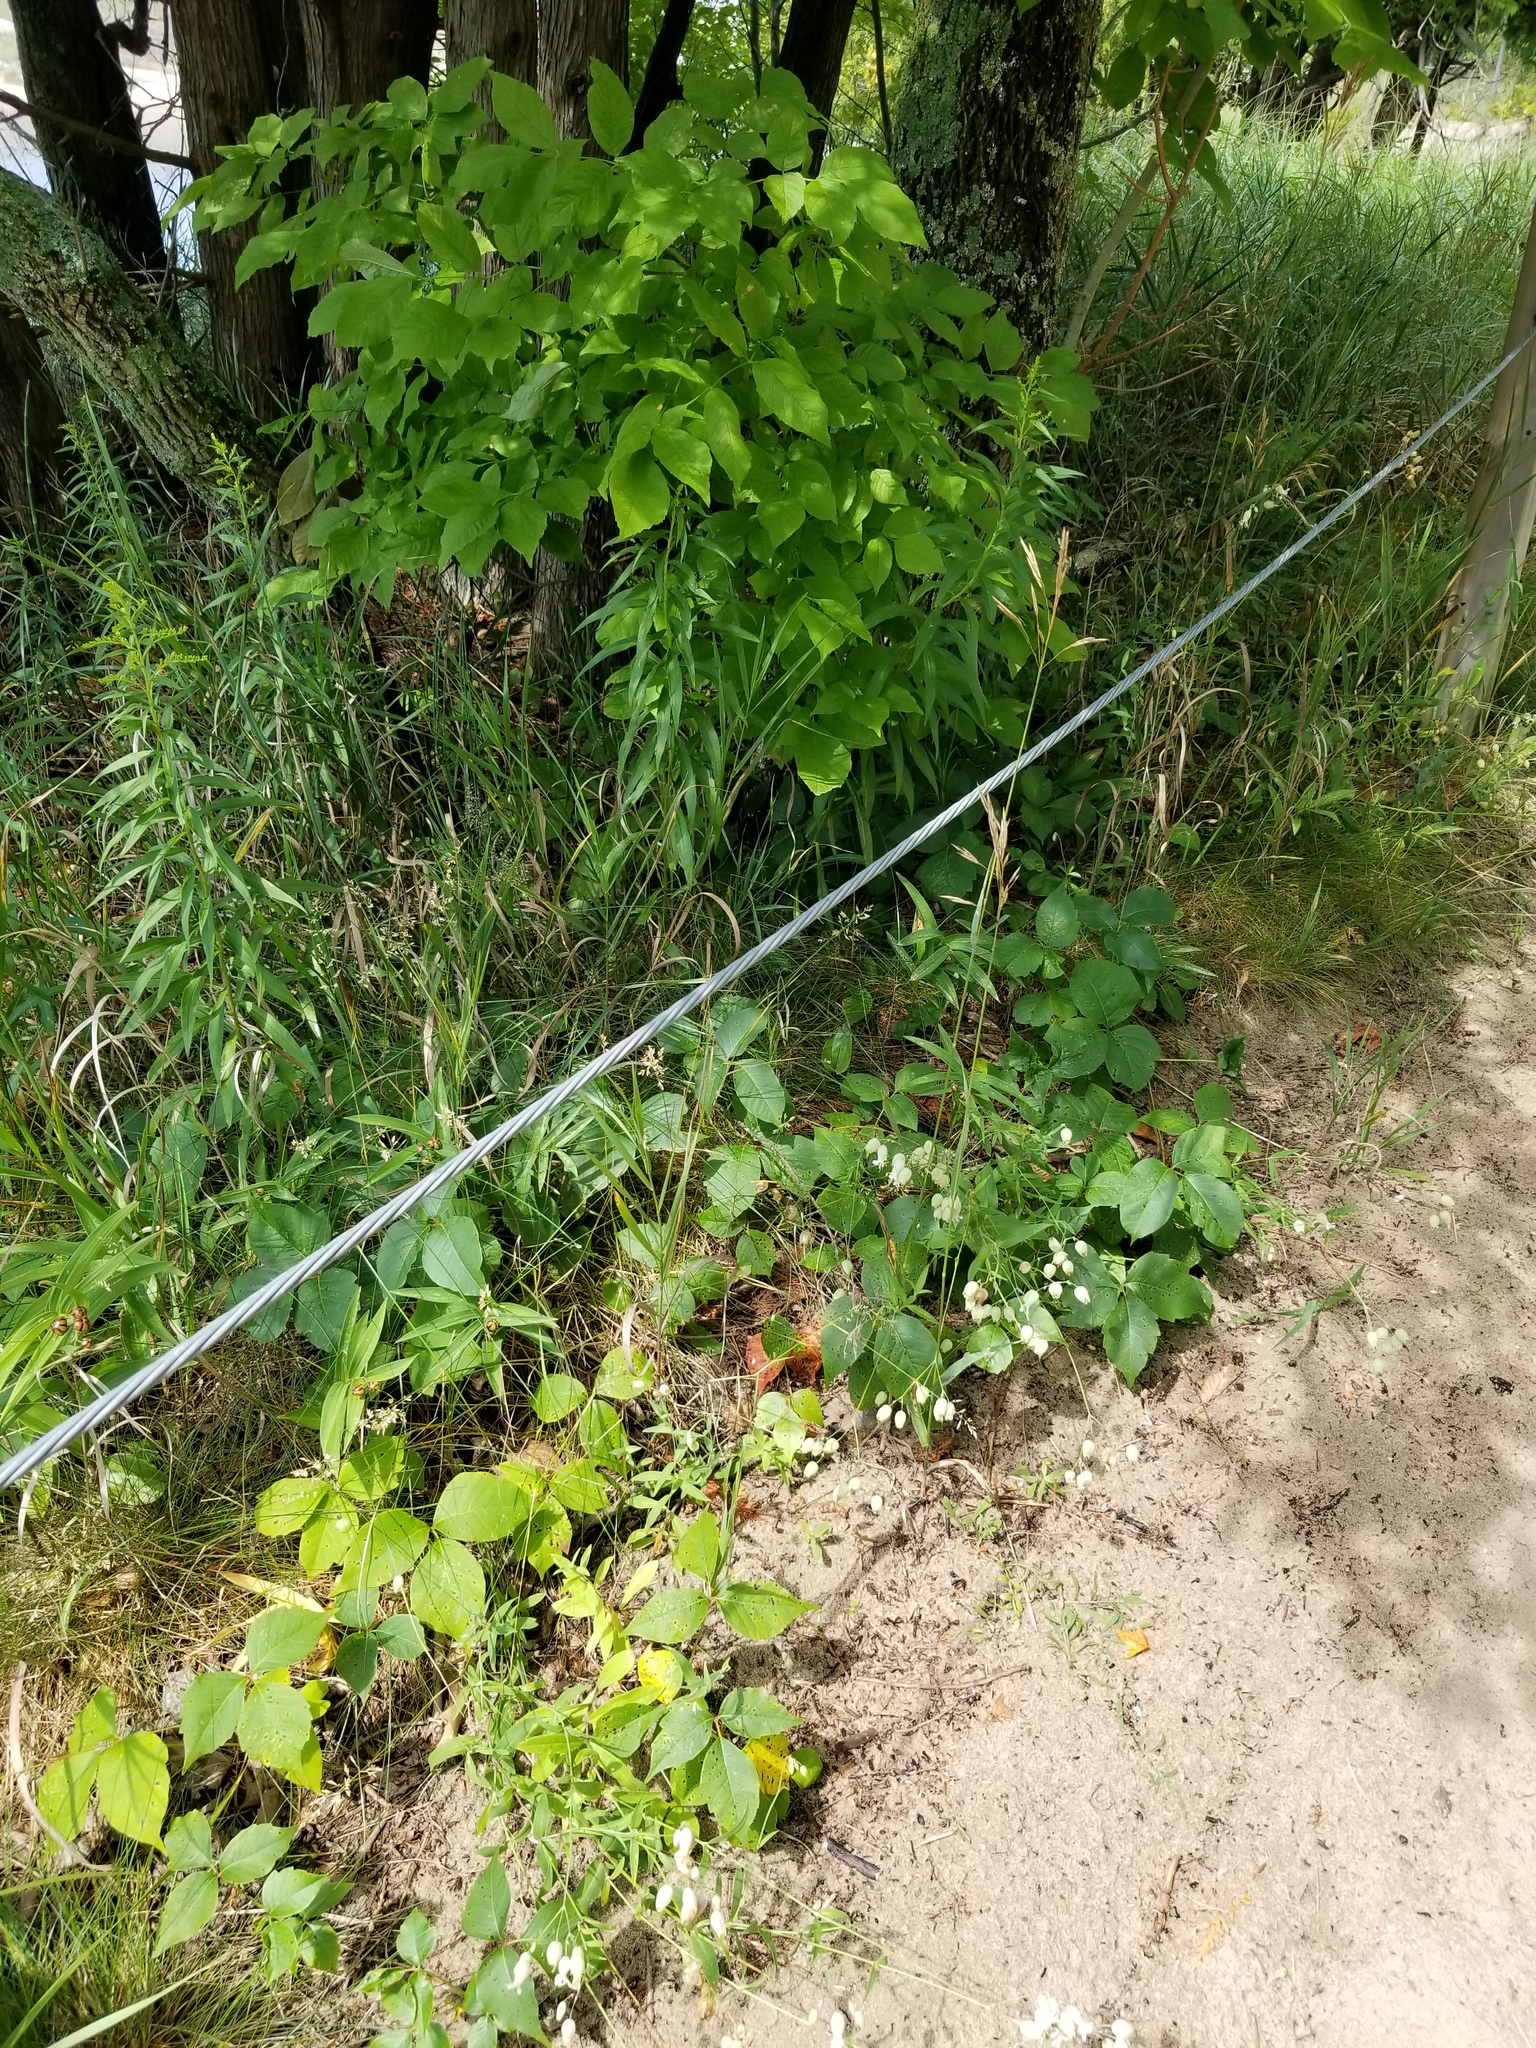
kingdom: Plantae
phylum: Tracheophyta
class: Magnoliopsida
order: Caryophyllales
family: Caryophyllaceae
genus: Silene
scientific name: Silene vulgaris
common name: Bladder campion
